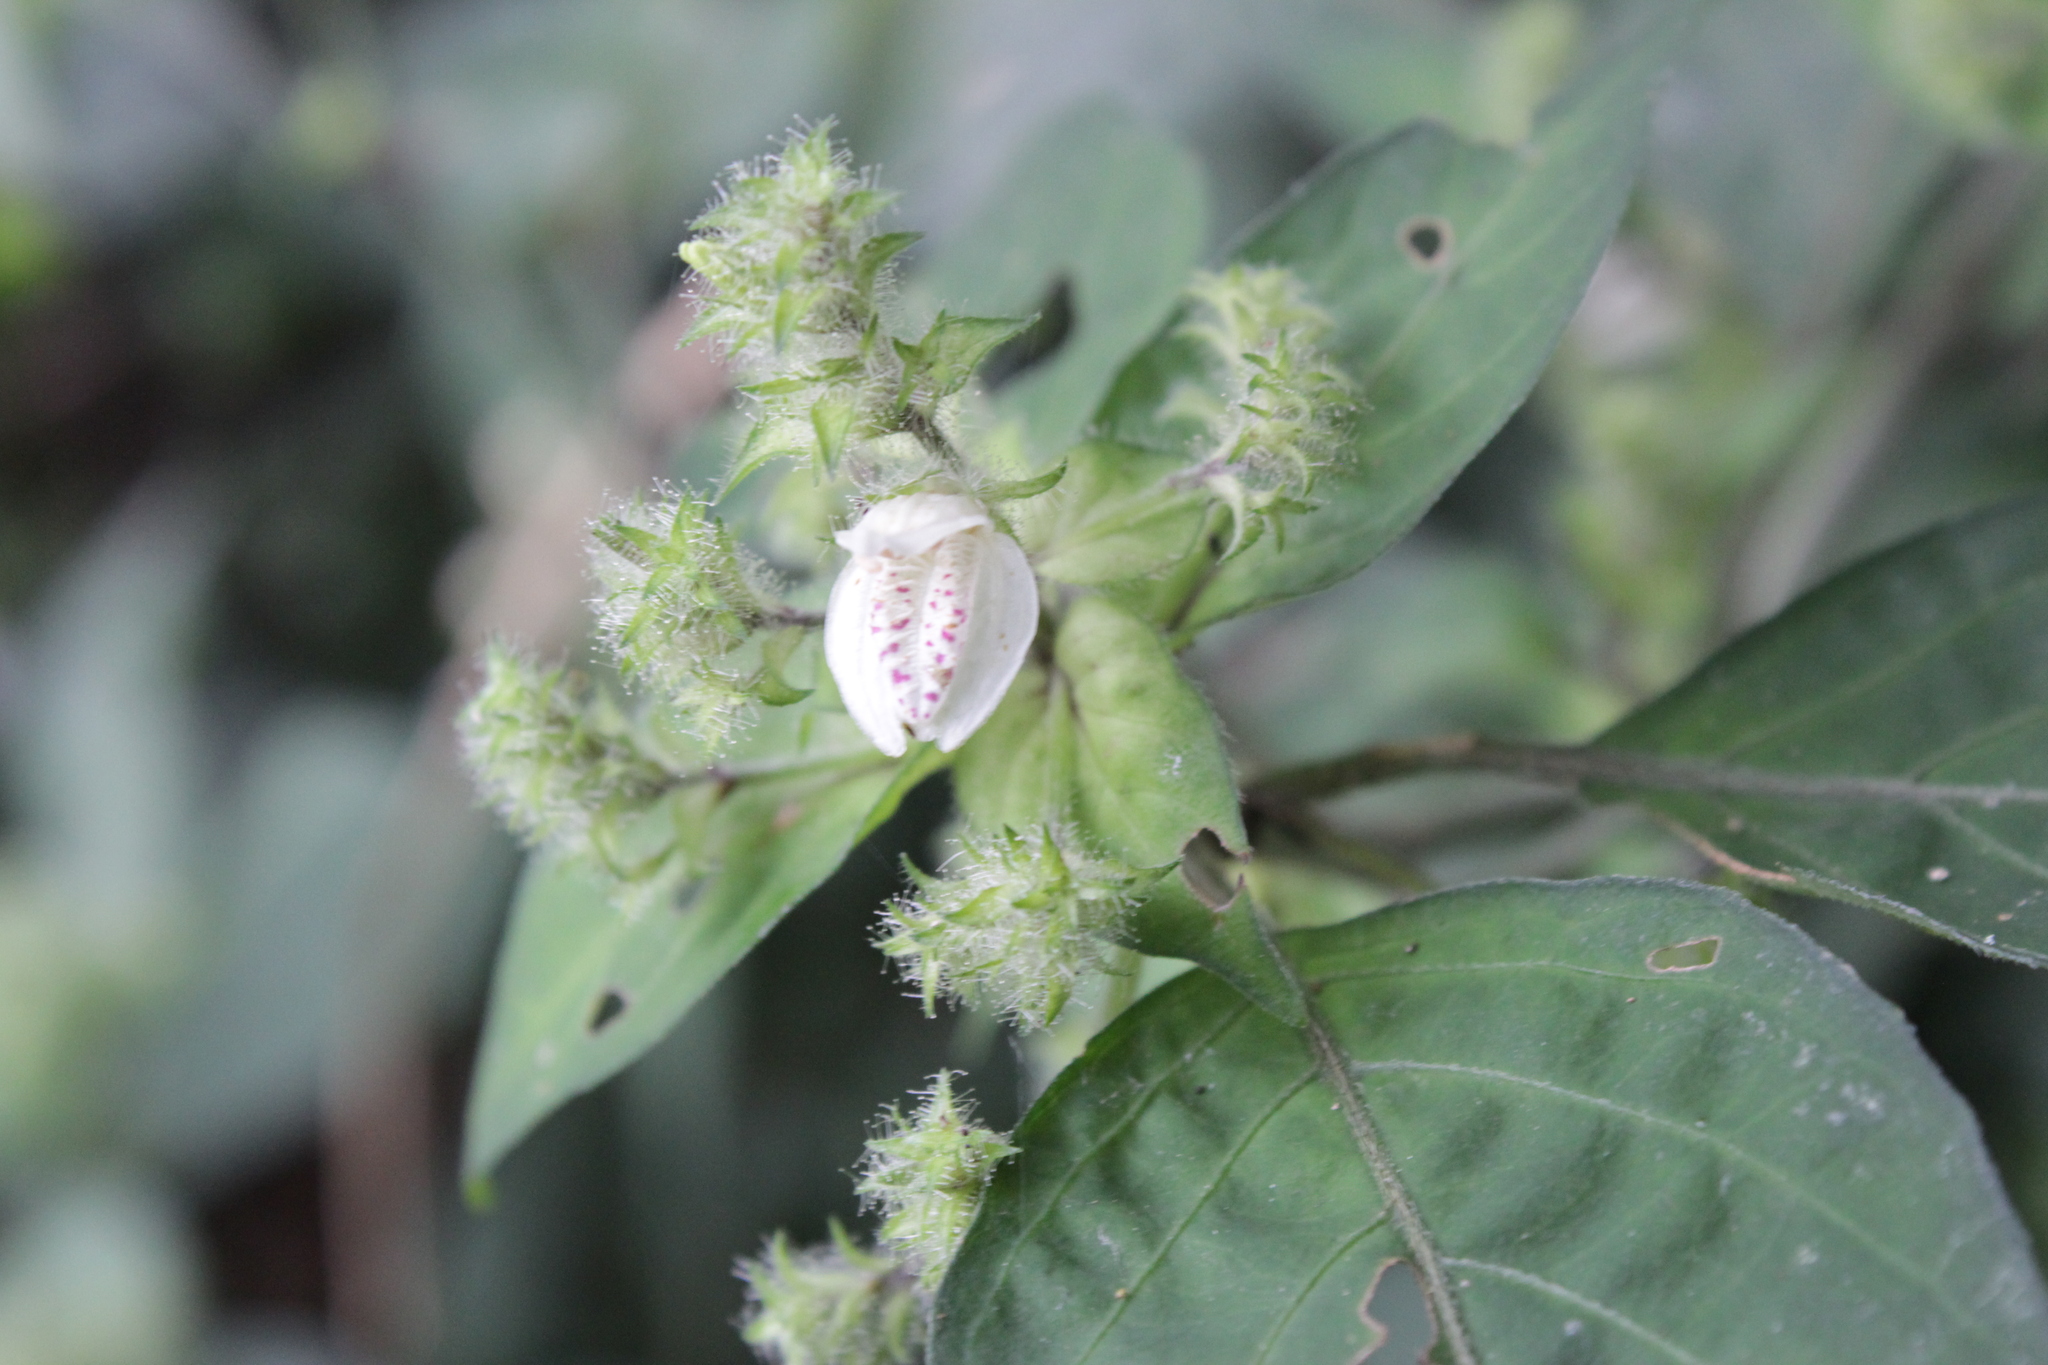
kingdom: Plantae
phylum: Tracheophyta
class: Magnoliopsida
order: Lamiales
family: Acanthaceae
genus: Isoglossa
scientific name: Isoglossa woodii
